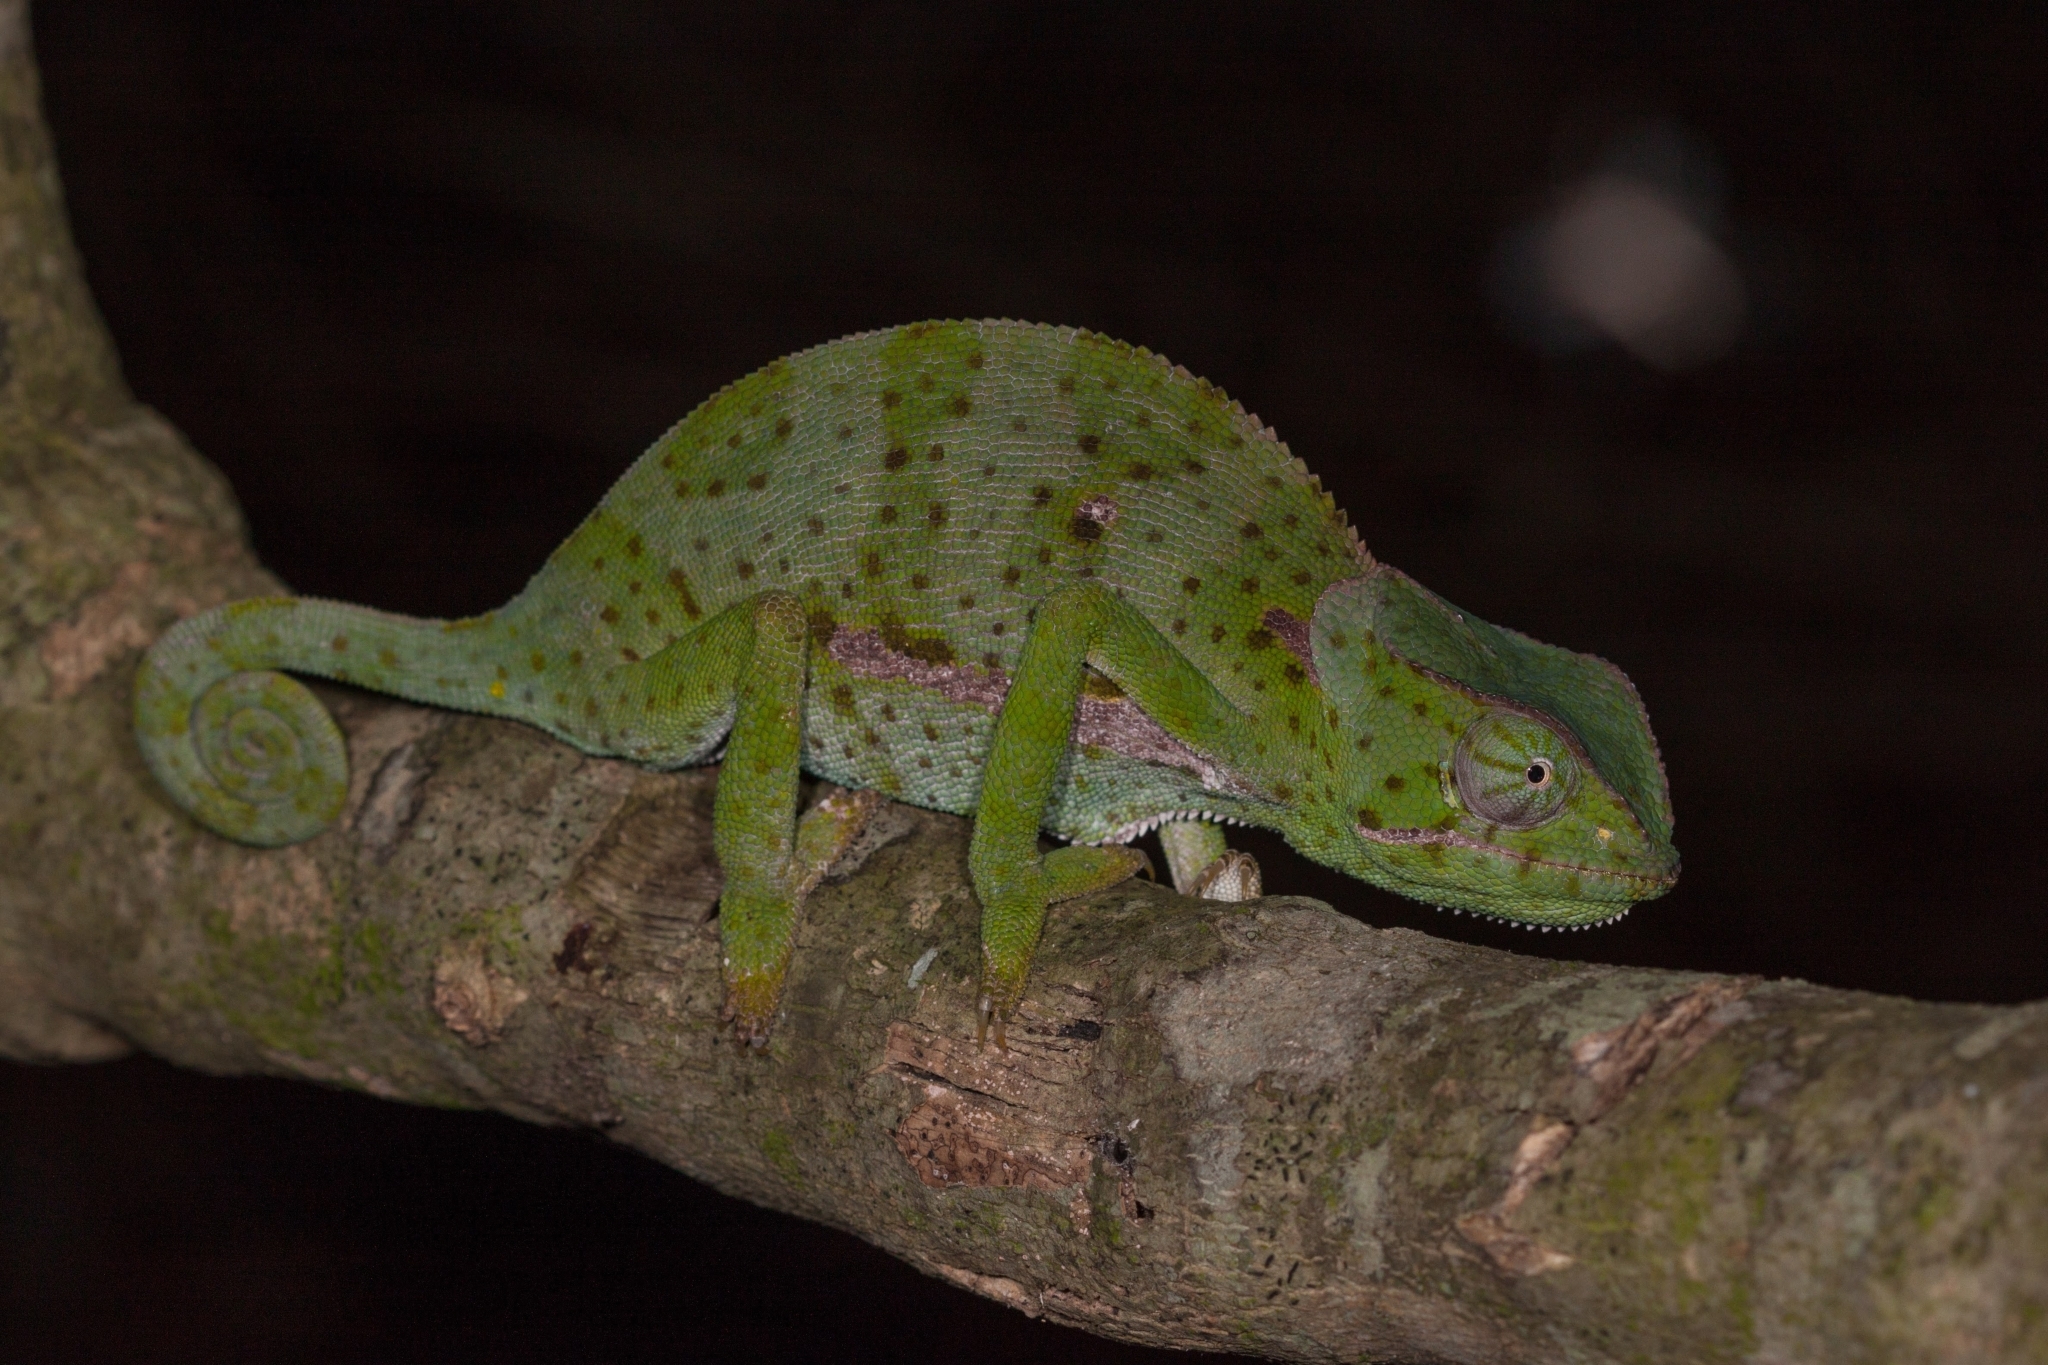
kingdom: Animalia
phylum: Chordata
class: Squamata
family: Chamaeleonidae
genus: Chamaeleo
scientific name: Chamaeleo dilepis
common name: Flapneck chameleon
